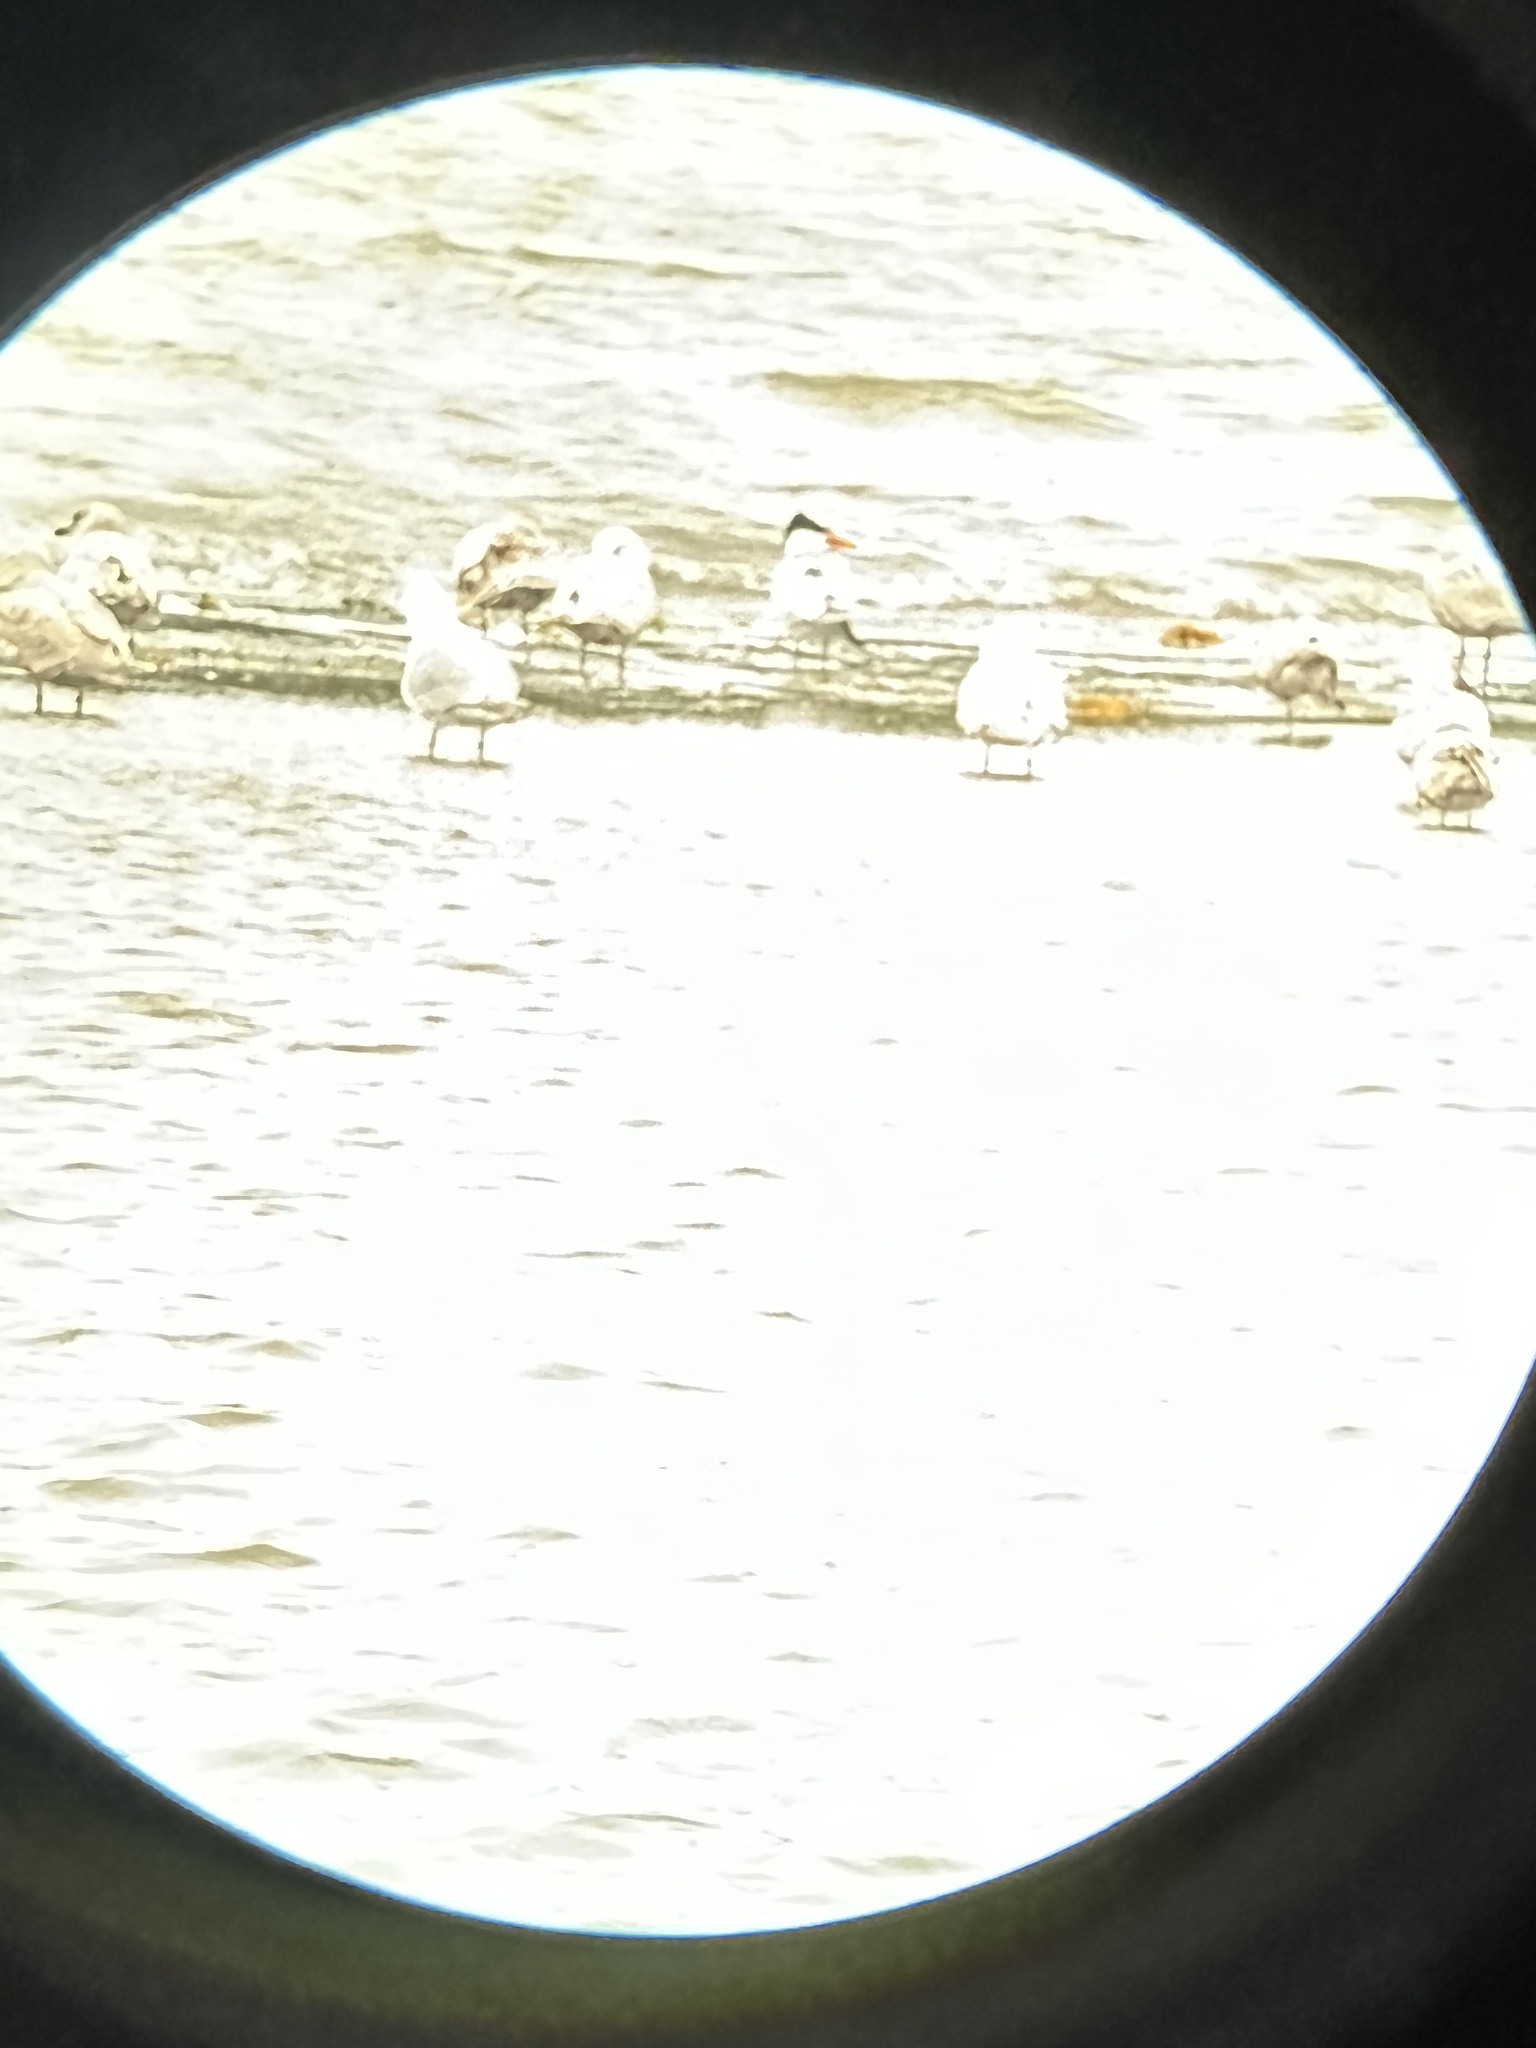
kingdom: Animalia
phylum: Chordata
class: Aves
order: Charadriiformes
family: Laridae
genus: Hydroprogne
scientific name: Hydroprogne caspia
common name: Caspian tern
